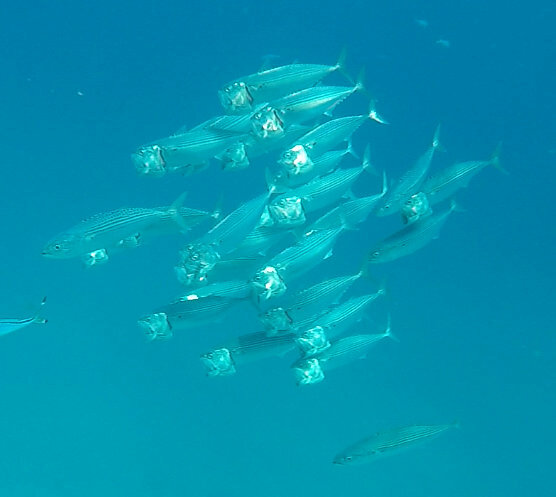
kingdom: Animalia
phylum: Chordata
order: Perciformes
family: Scombridae
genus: Rastrelliger
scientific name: Rastrelliger kanagurta
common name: Indian mackerel
